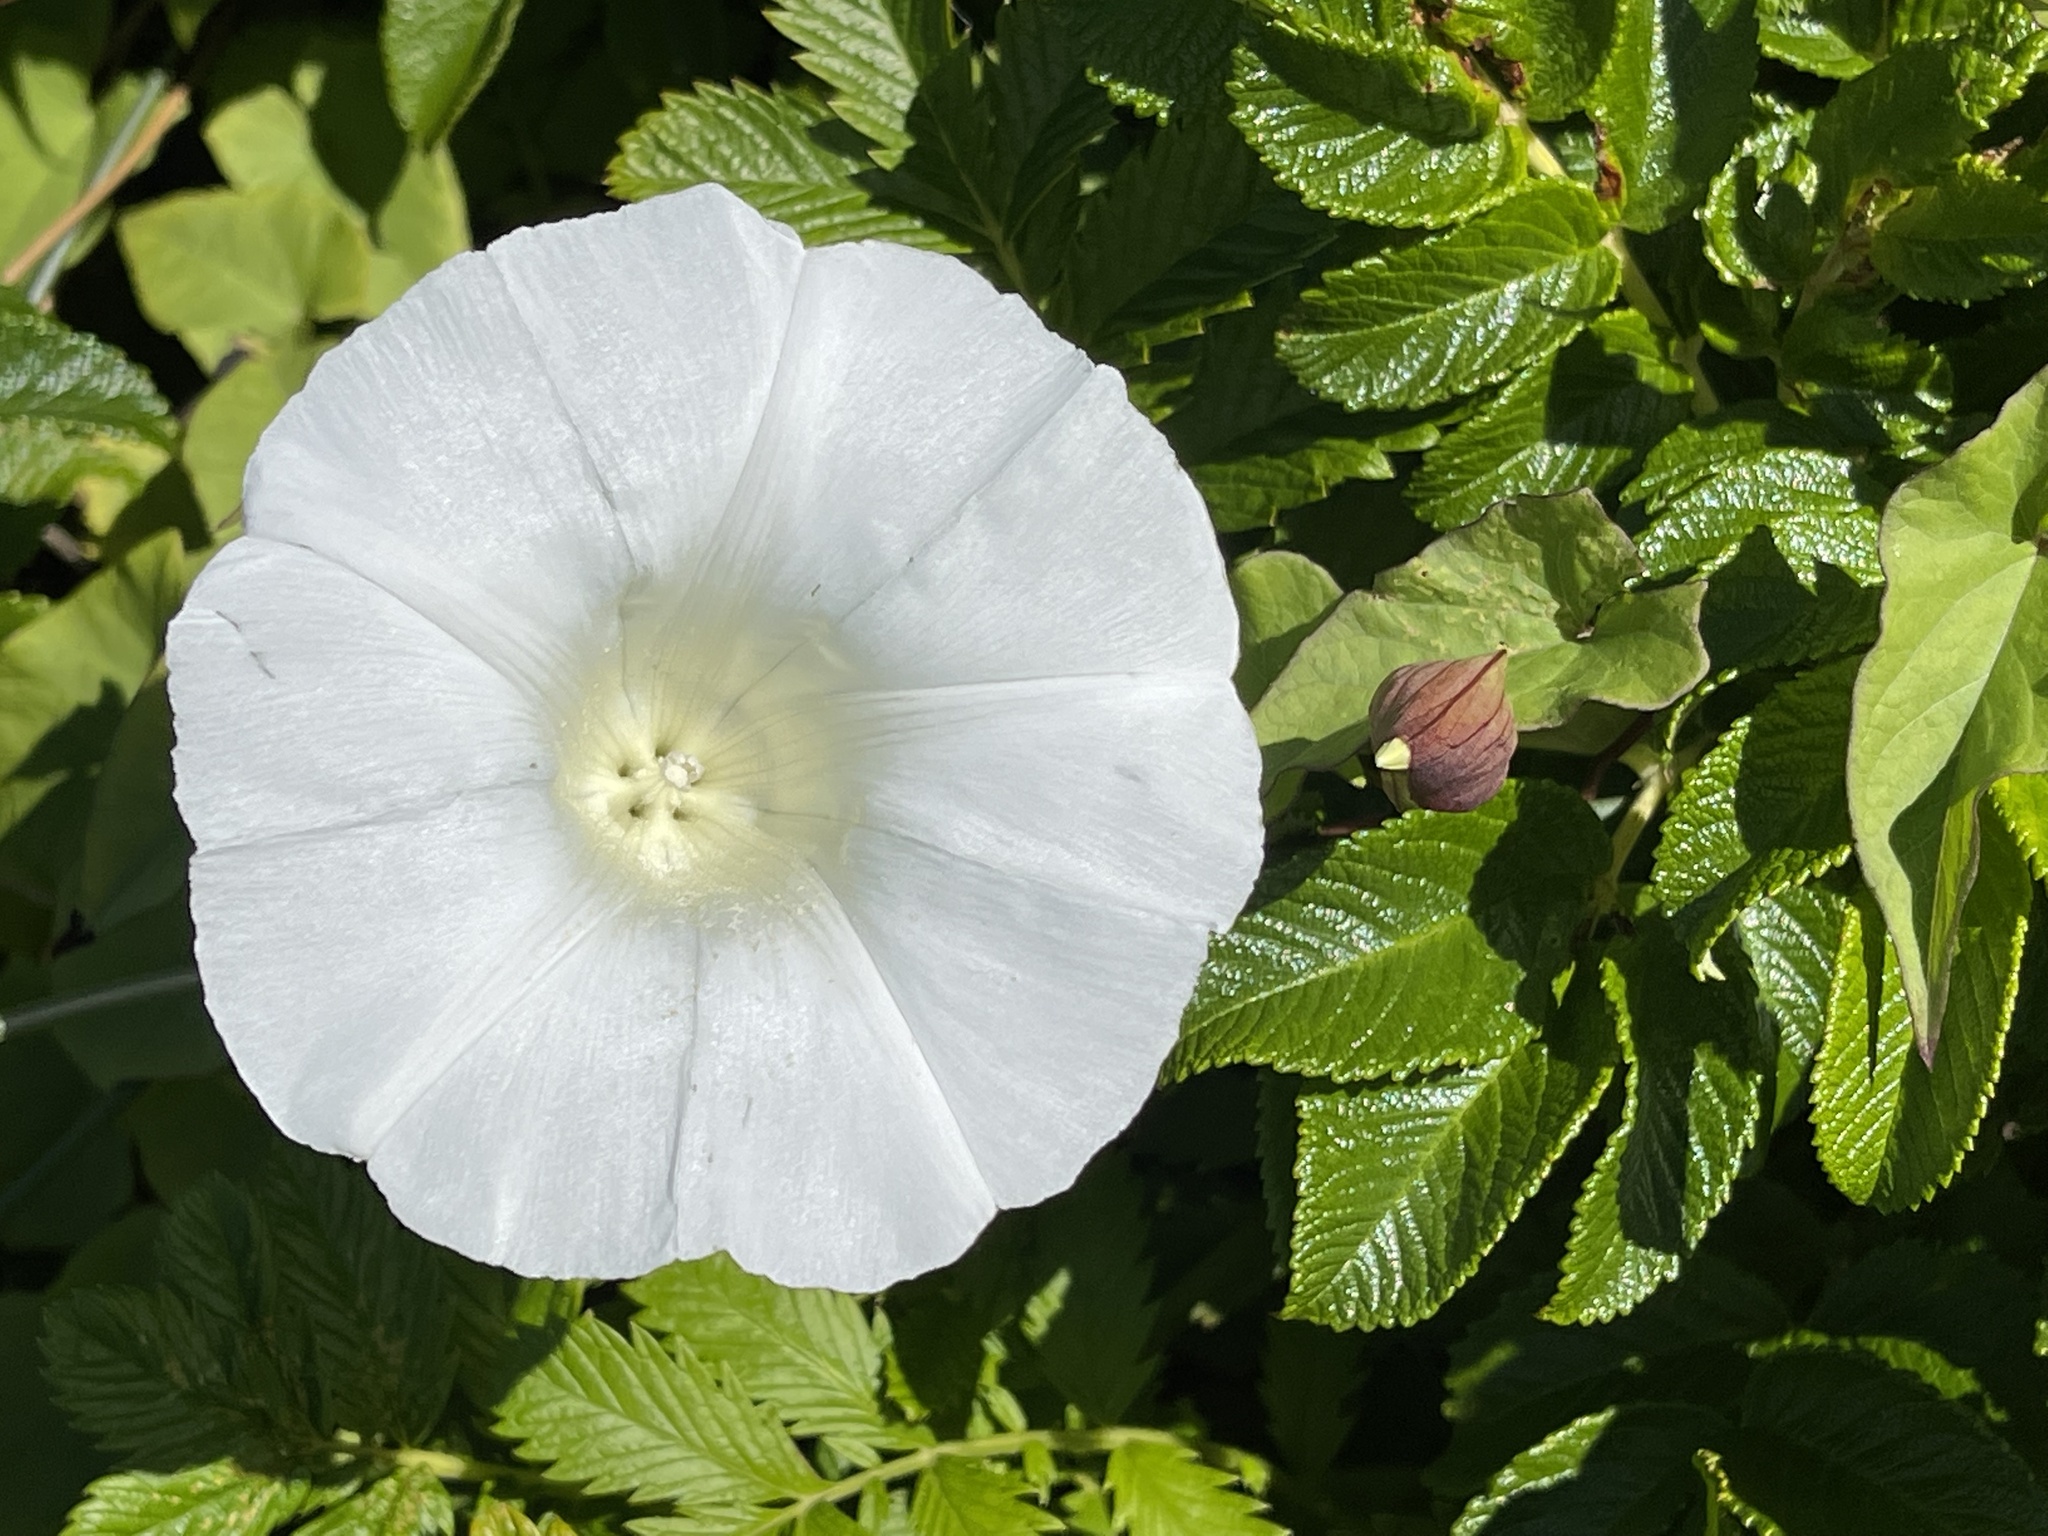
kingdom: Plantae
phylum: Tracheophyta
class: Magnoliopsida
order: Solanales
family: Convolvulaceae
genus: Calystegia
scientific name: Calystegia silvatica
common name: Large bindweed
